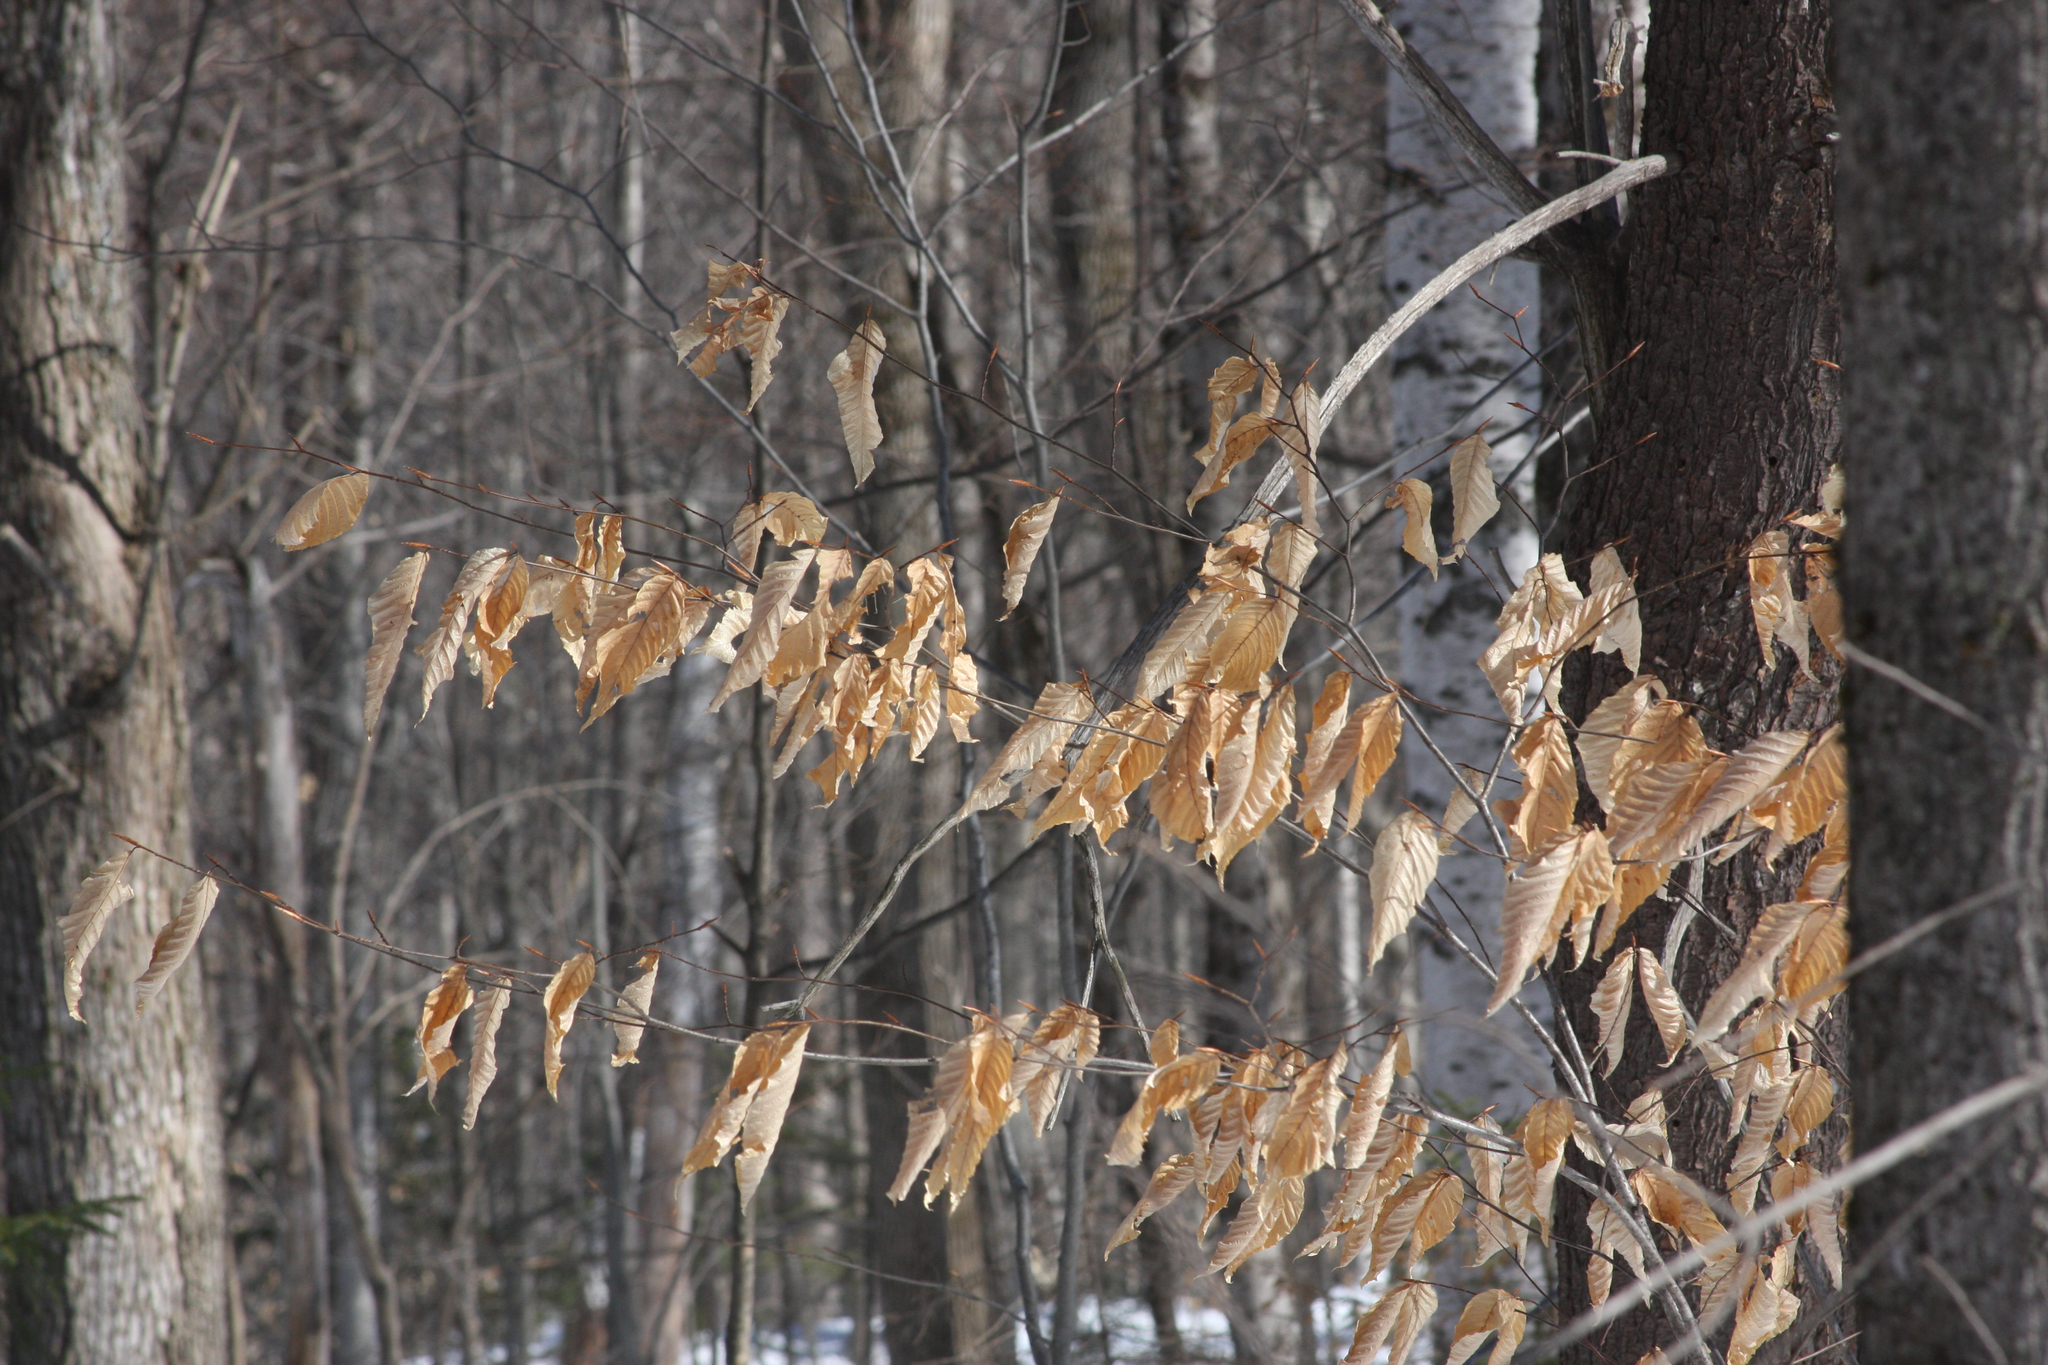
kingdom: Plantae
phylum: Tracheophyta
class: Magnoliopsida
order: Fagales
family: Fagaceae
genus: Fagus
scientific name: Fagus grandifolia
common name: American beech
